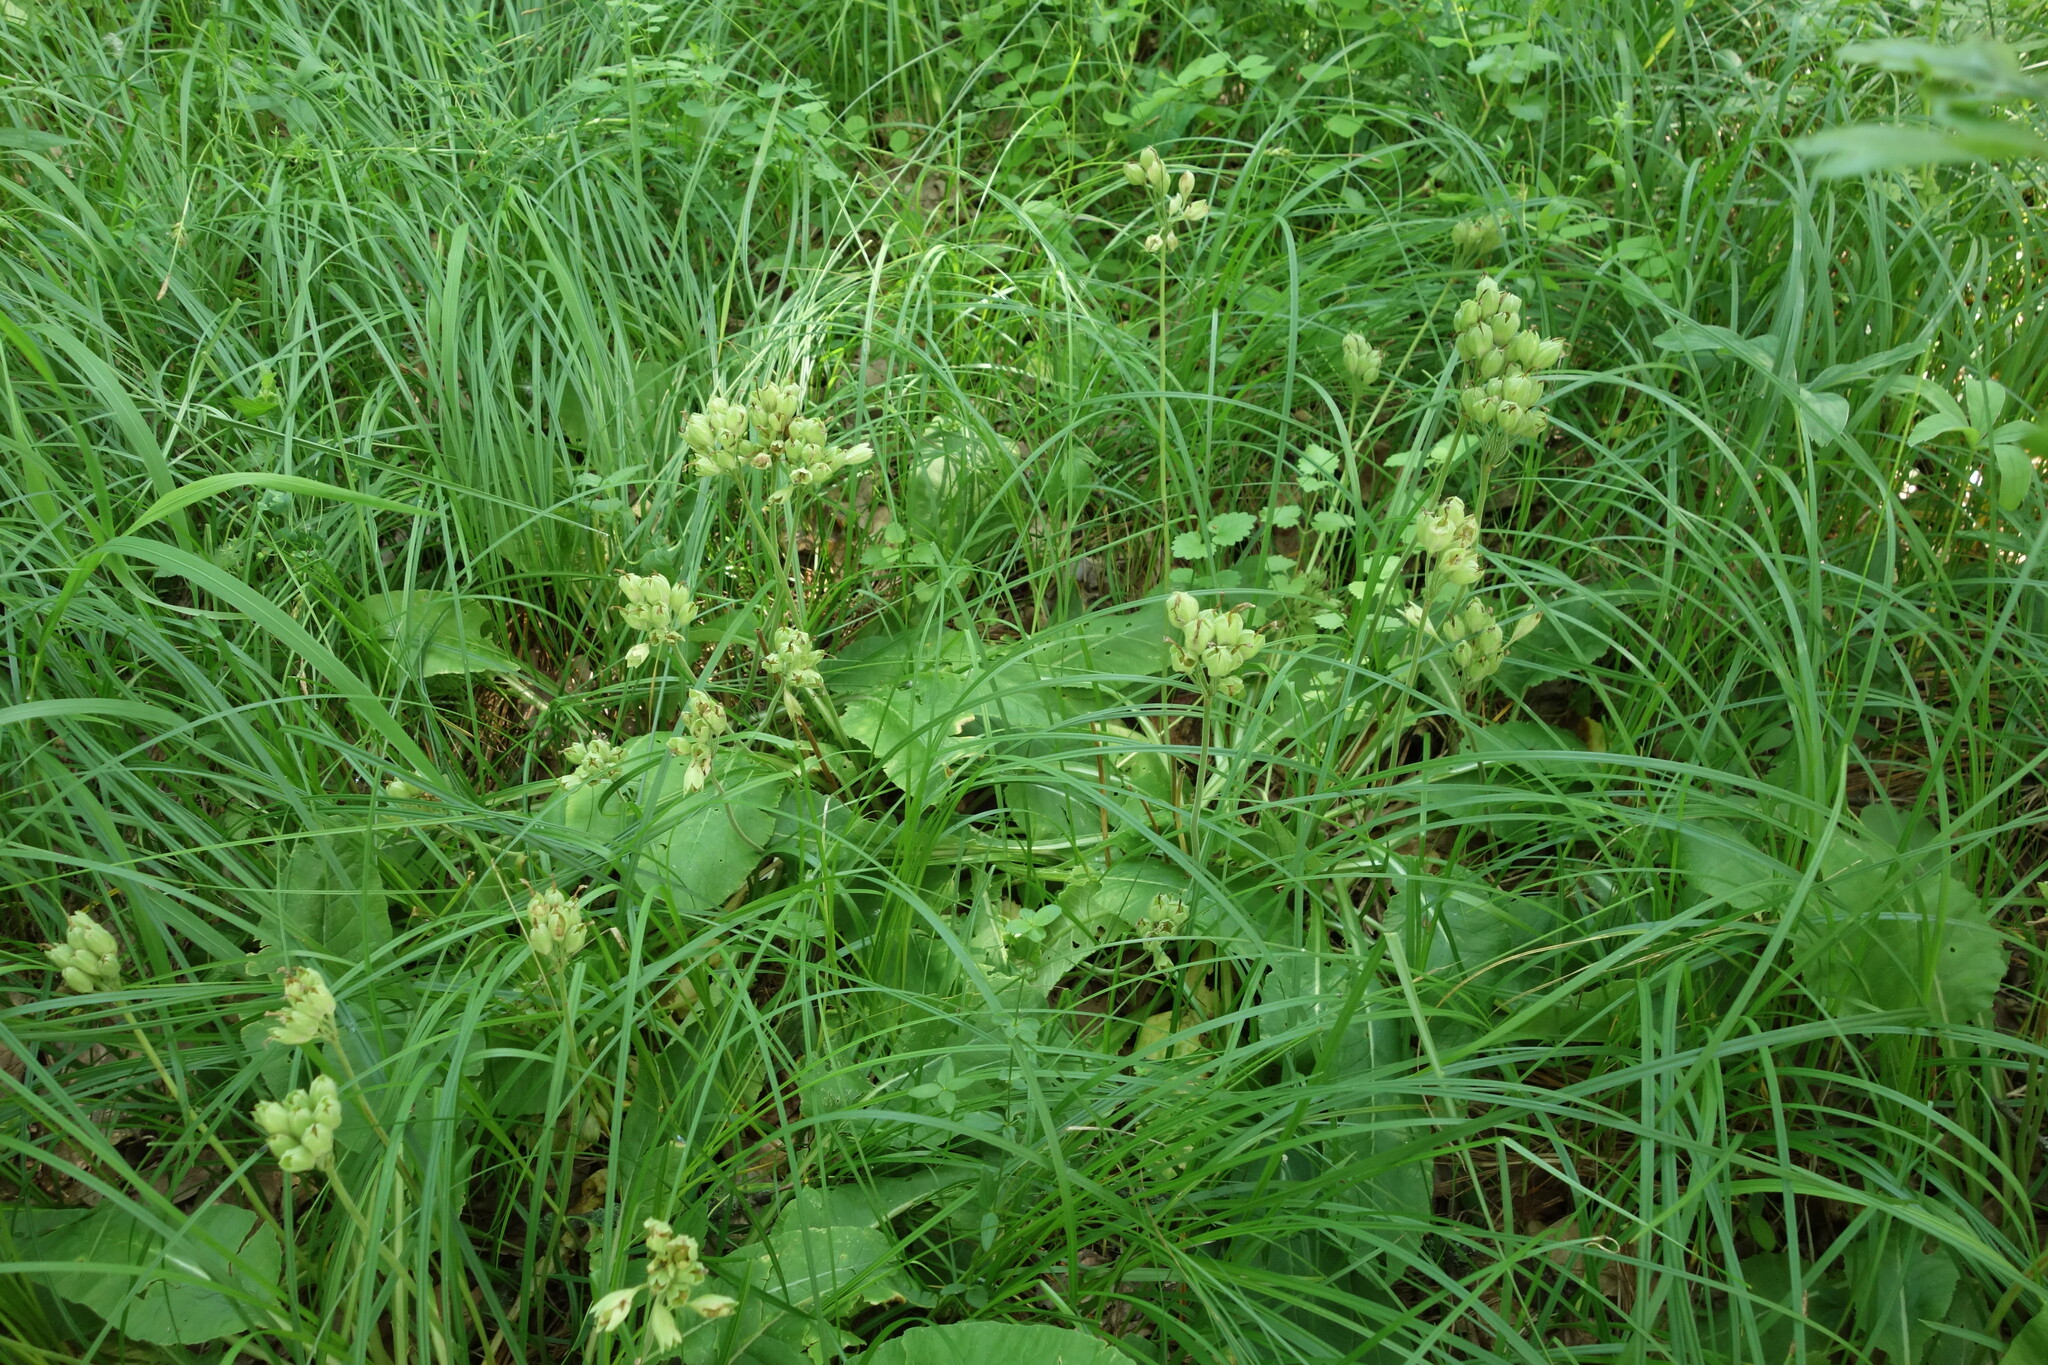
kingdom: Plantae
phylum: Tracheophyta
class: Magnoliopsida
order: Ericales
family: Primulaceae
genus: Primula
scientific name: Primula veris
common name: Cowslip
